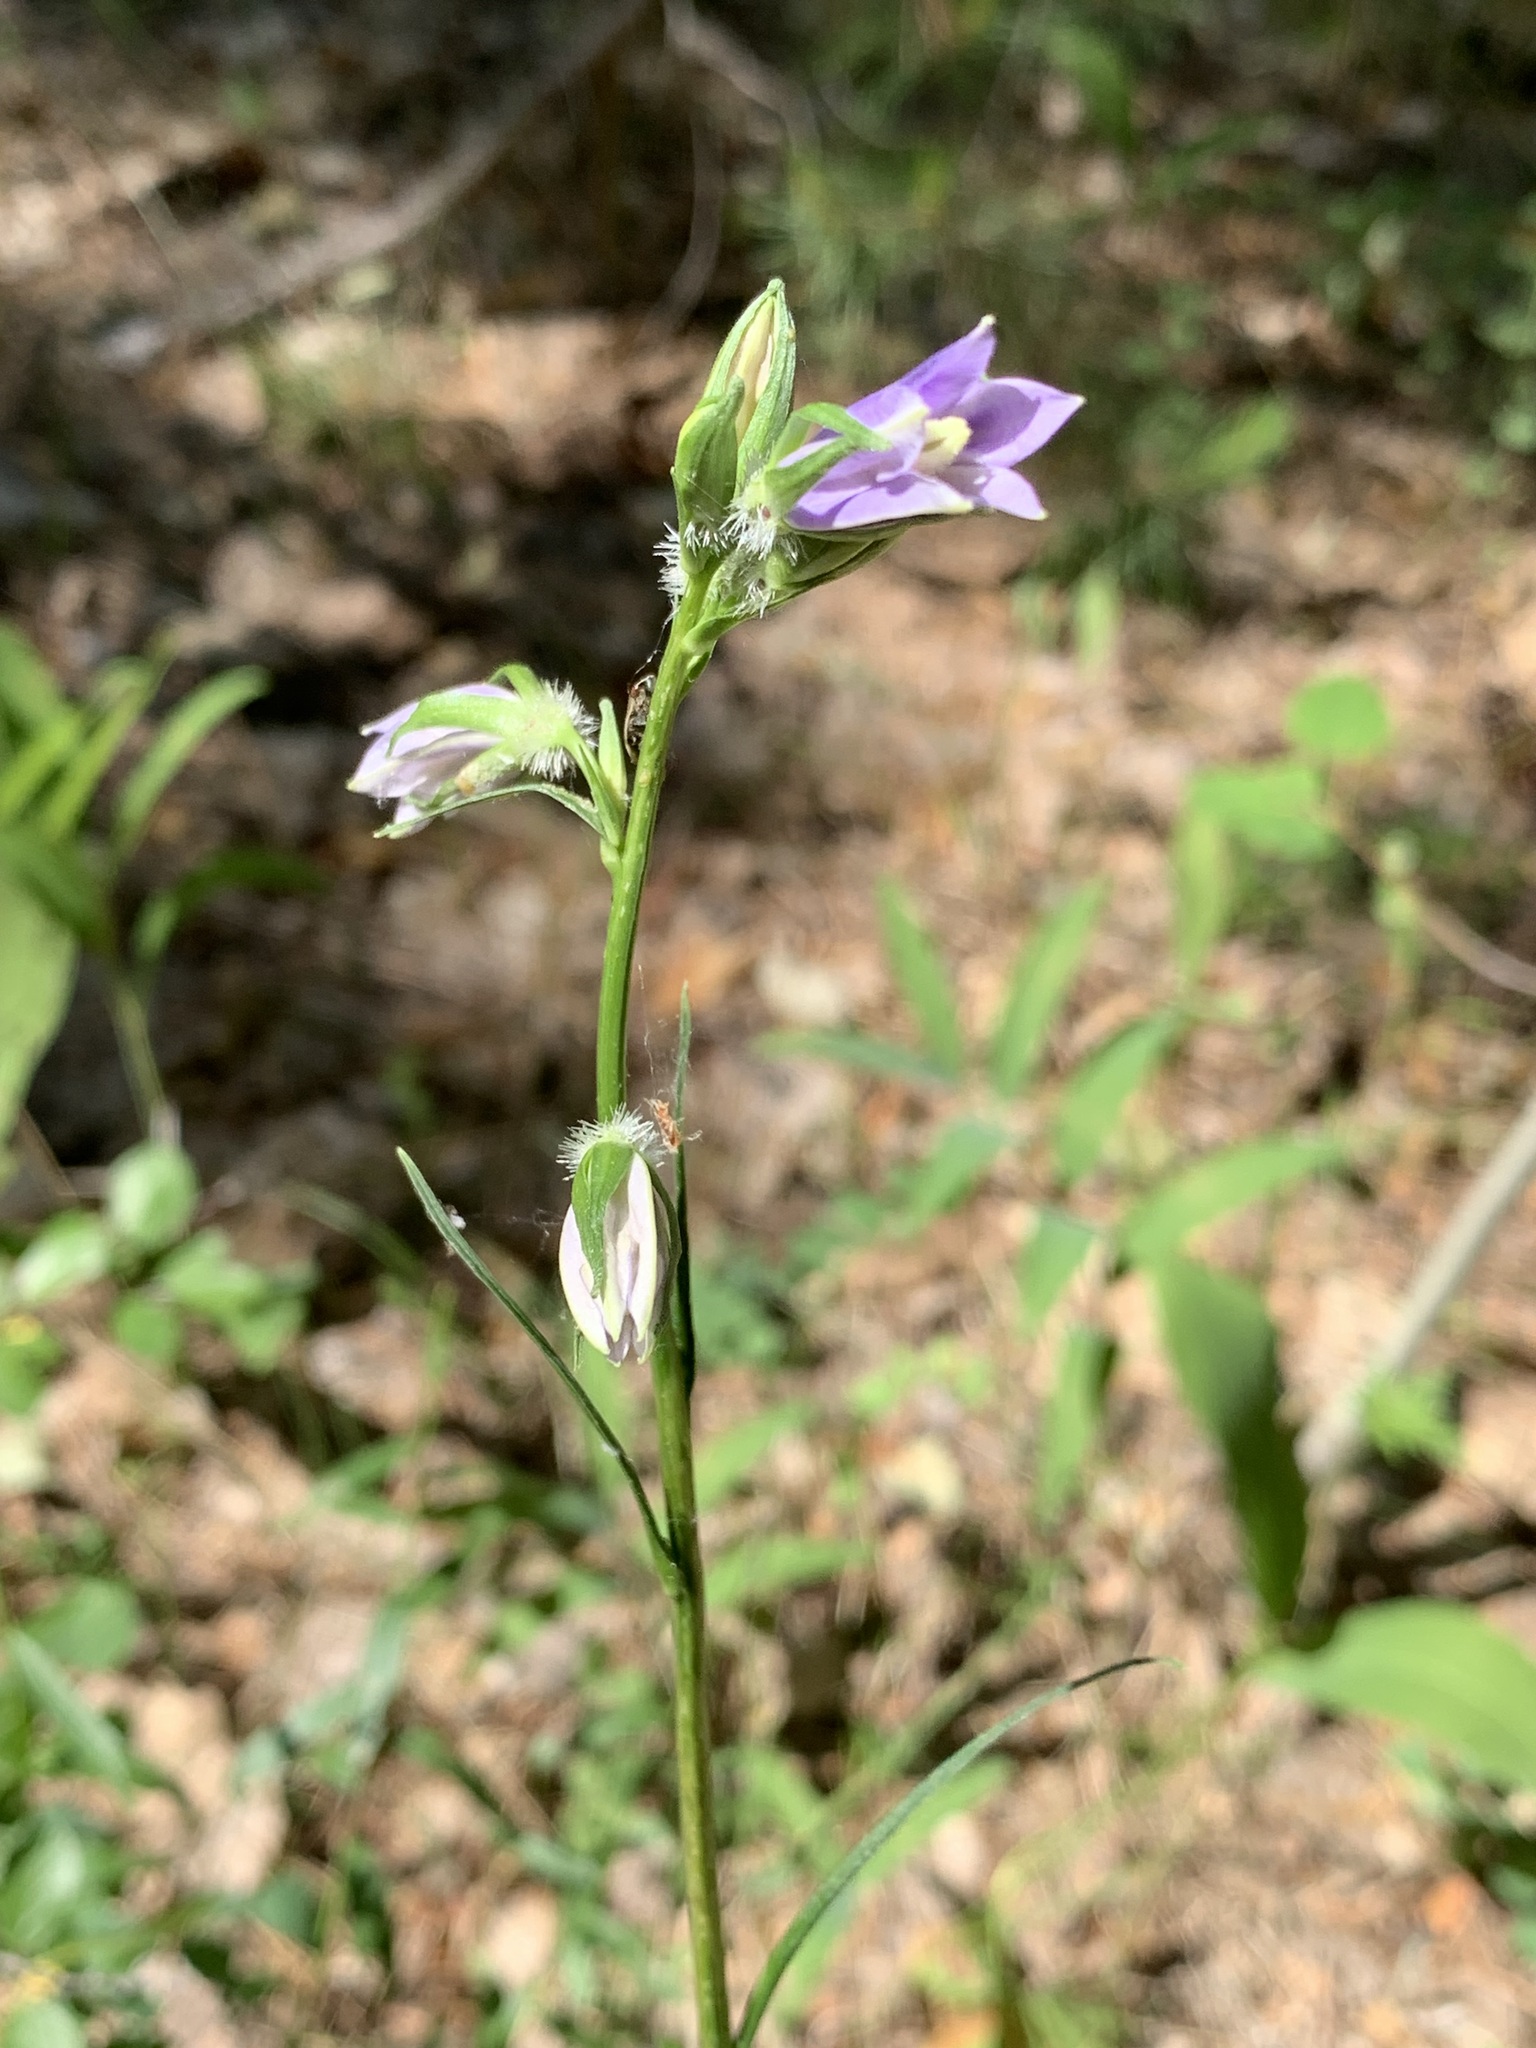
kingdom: Plantae
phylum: Tracheophyta
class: Magnoliopsida
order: Asterales
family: Campanulaceae
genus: Campanula
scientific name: Campanula persicifolia
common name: Peach-leaved bellflower
